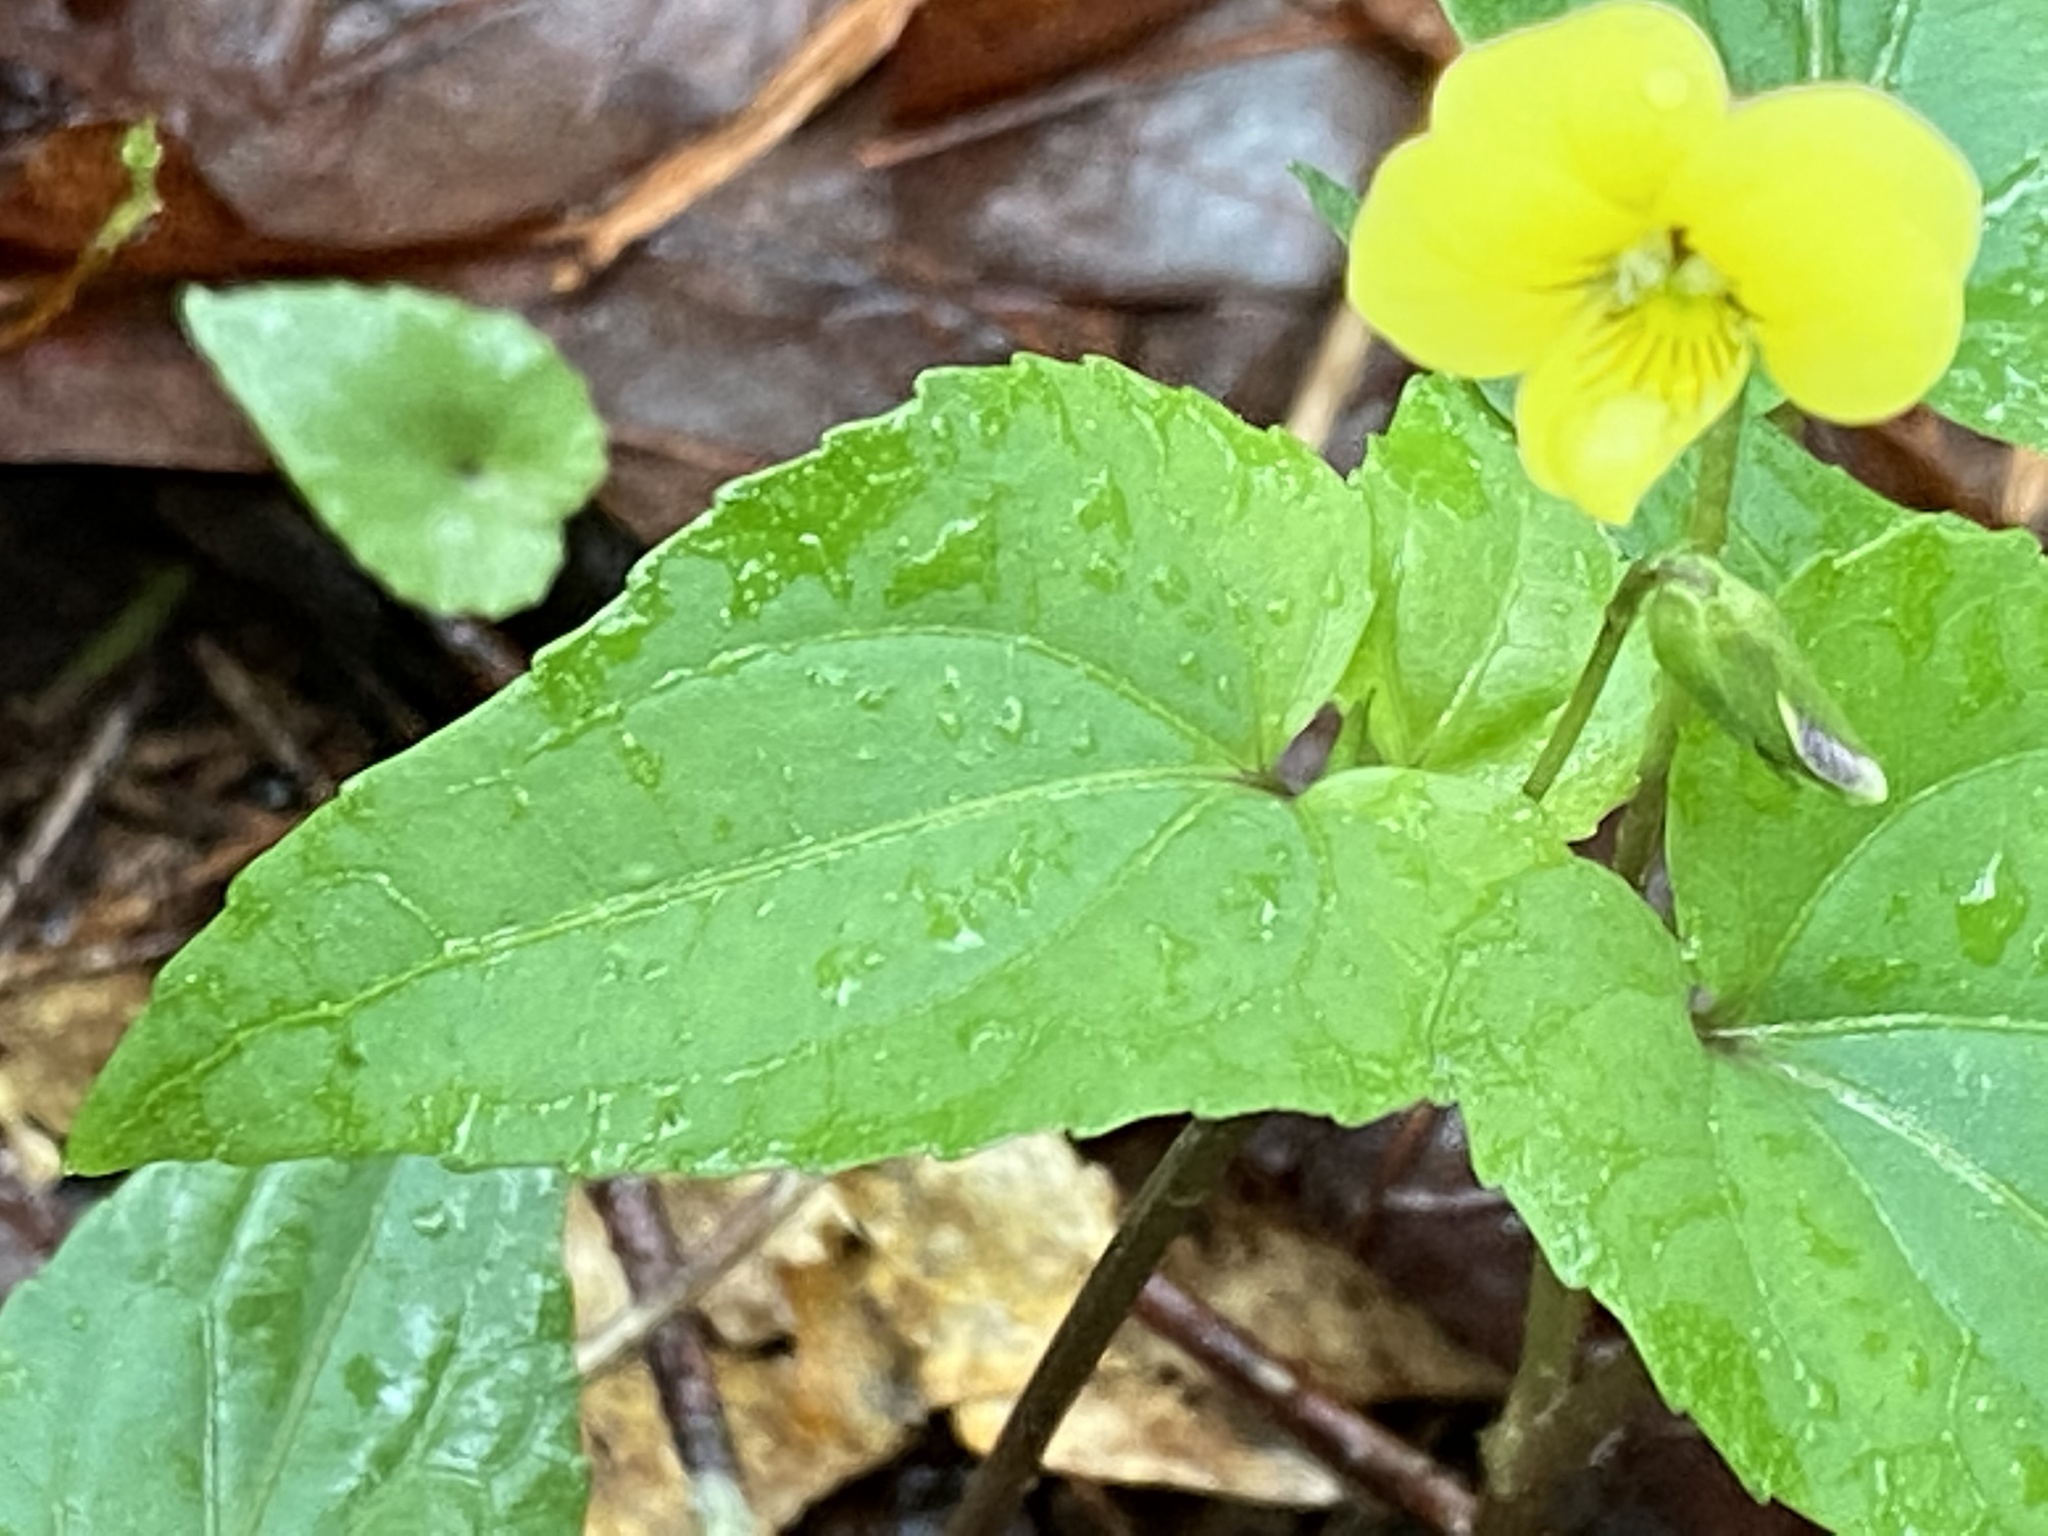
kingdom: Plantae
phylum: Tracheophyta
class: Magnoliopsida
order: Malpighiales
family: Violaceae
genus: Viola
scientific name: Viola hastata
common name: Spear-leaf violet
